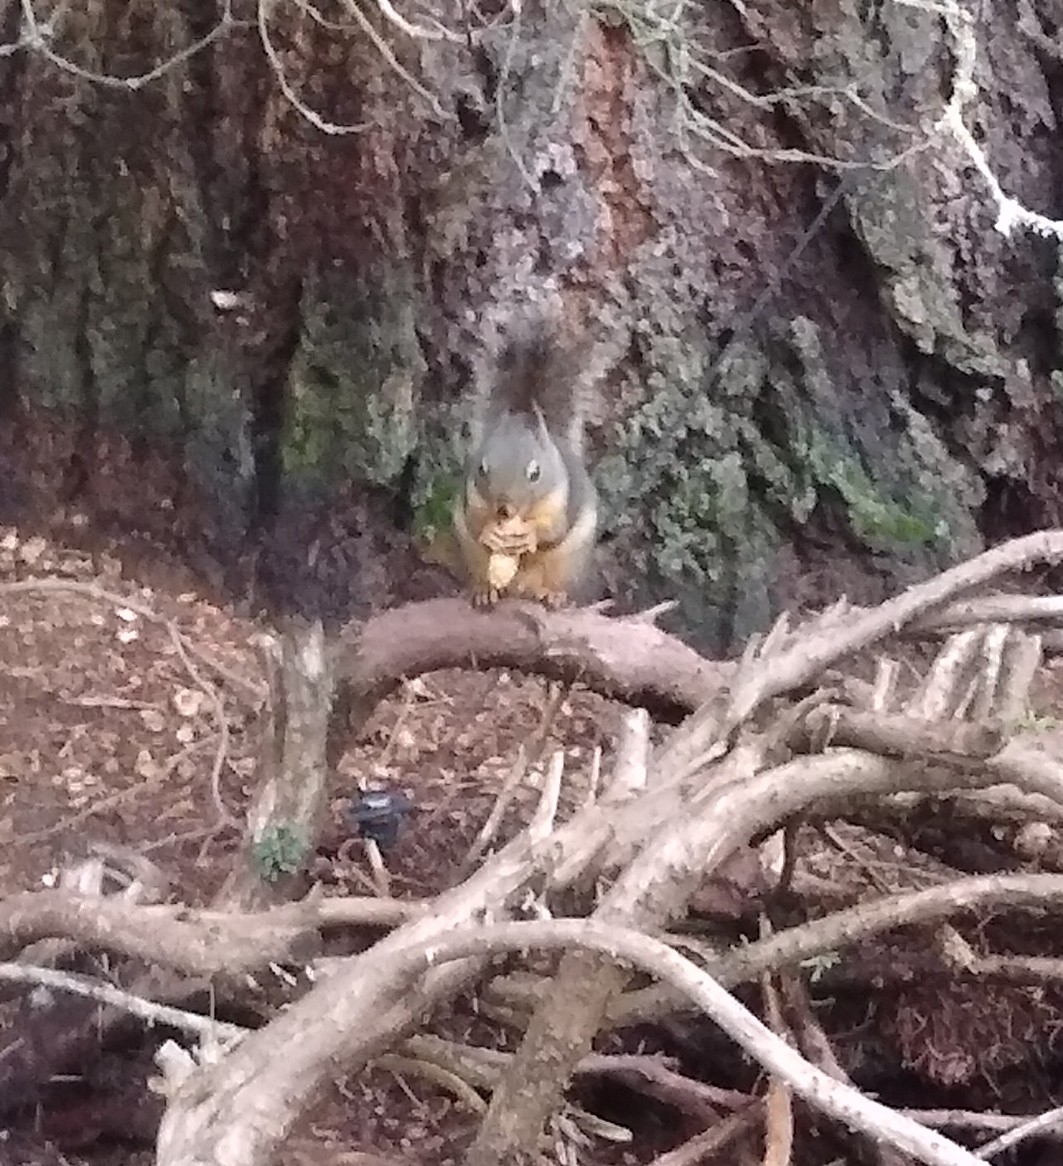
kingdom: Animalia
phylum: Chordata
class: Mammalia
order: Rodentia
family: Sciuridae
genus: Tamiasciurus
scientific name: Tamiasciurus douglasii
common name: Douglas's squirrel
